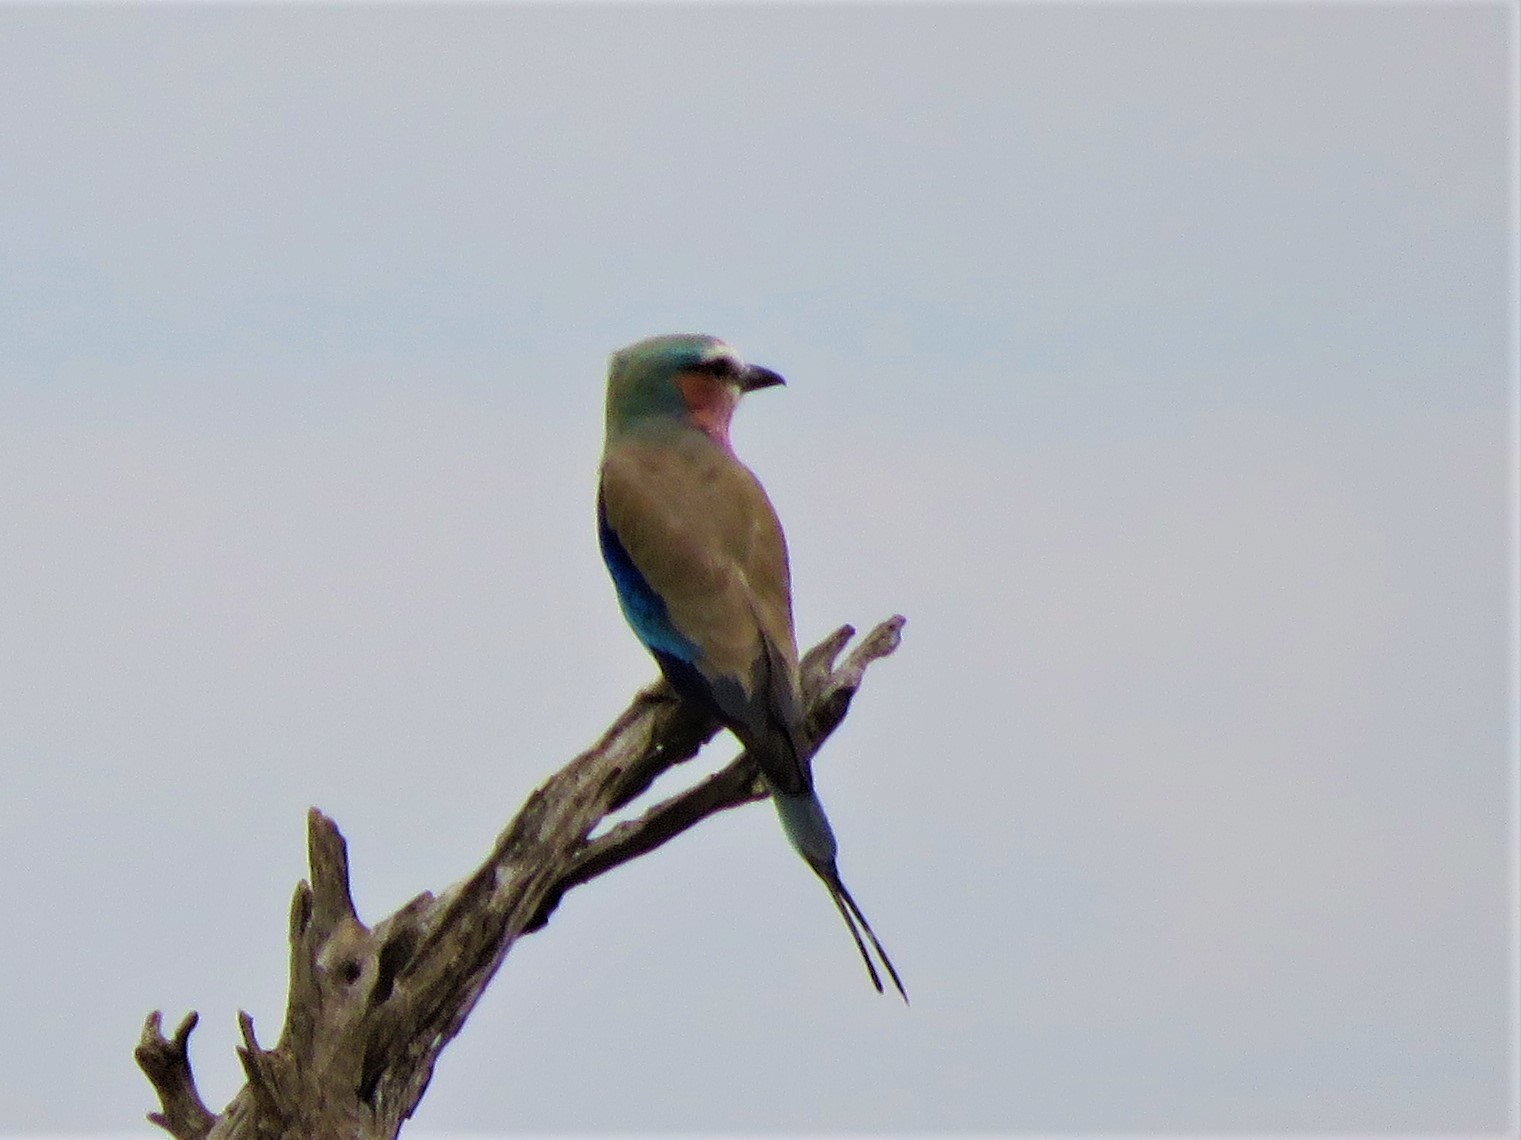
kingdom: Animalia
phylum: Chordata
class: Aves
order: Coraciiformes
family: Coraciidae
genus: Coracias
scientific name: Coracias caudatus
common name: Lilac-breasted roller
